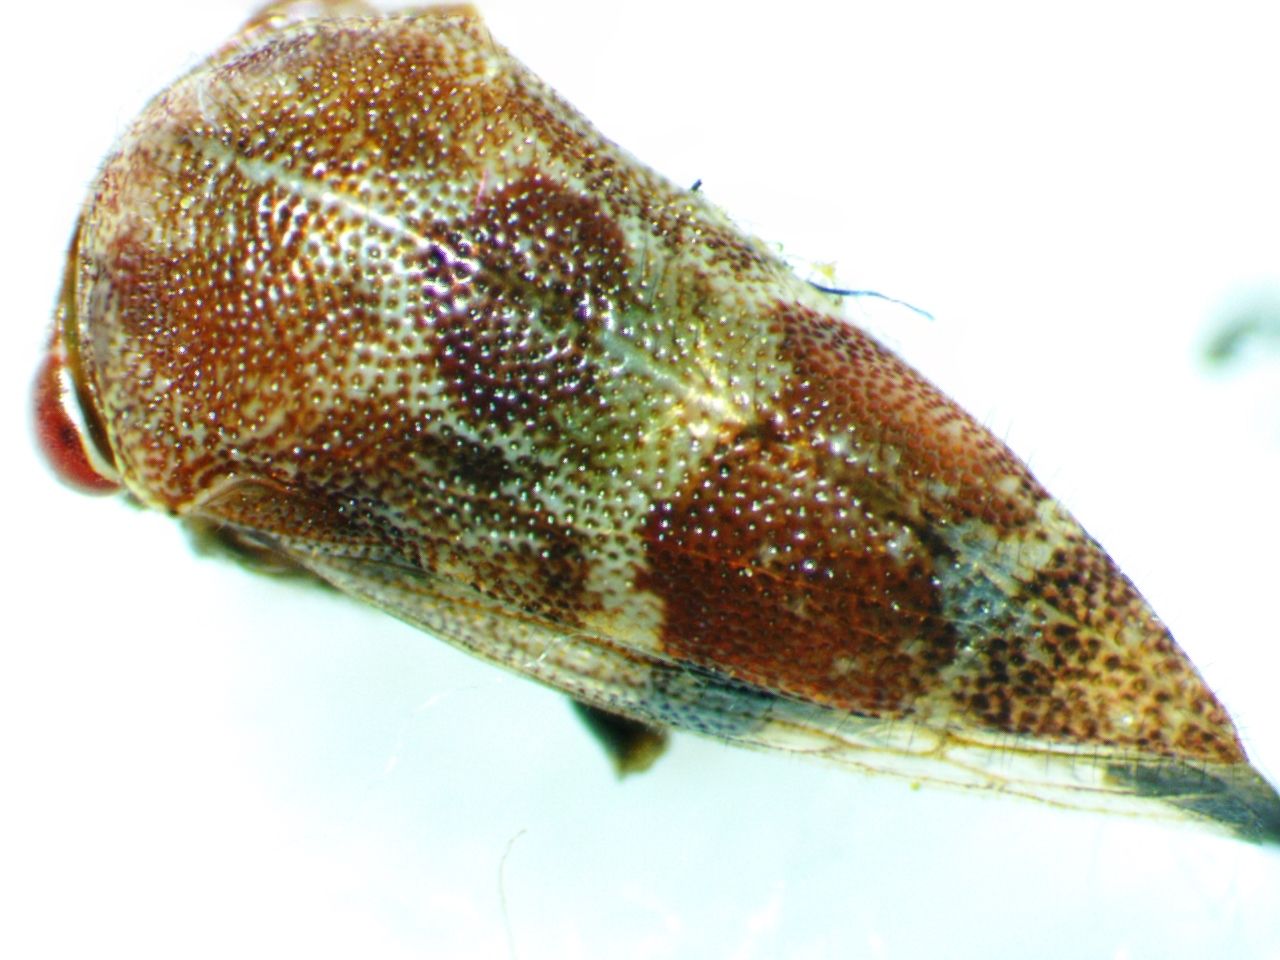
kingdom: Animalia
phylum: Arthropoda
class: Insecta
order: Hemiptera
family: Membracidae
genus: Ophiderma
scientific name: Ophiderma definita
